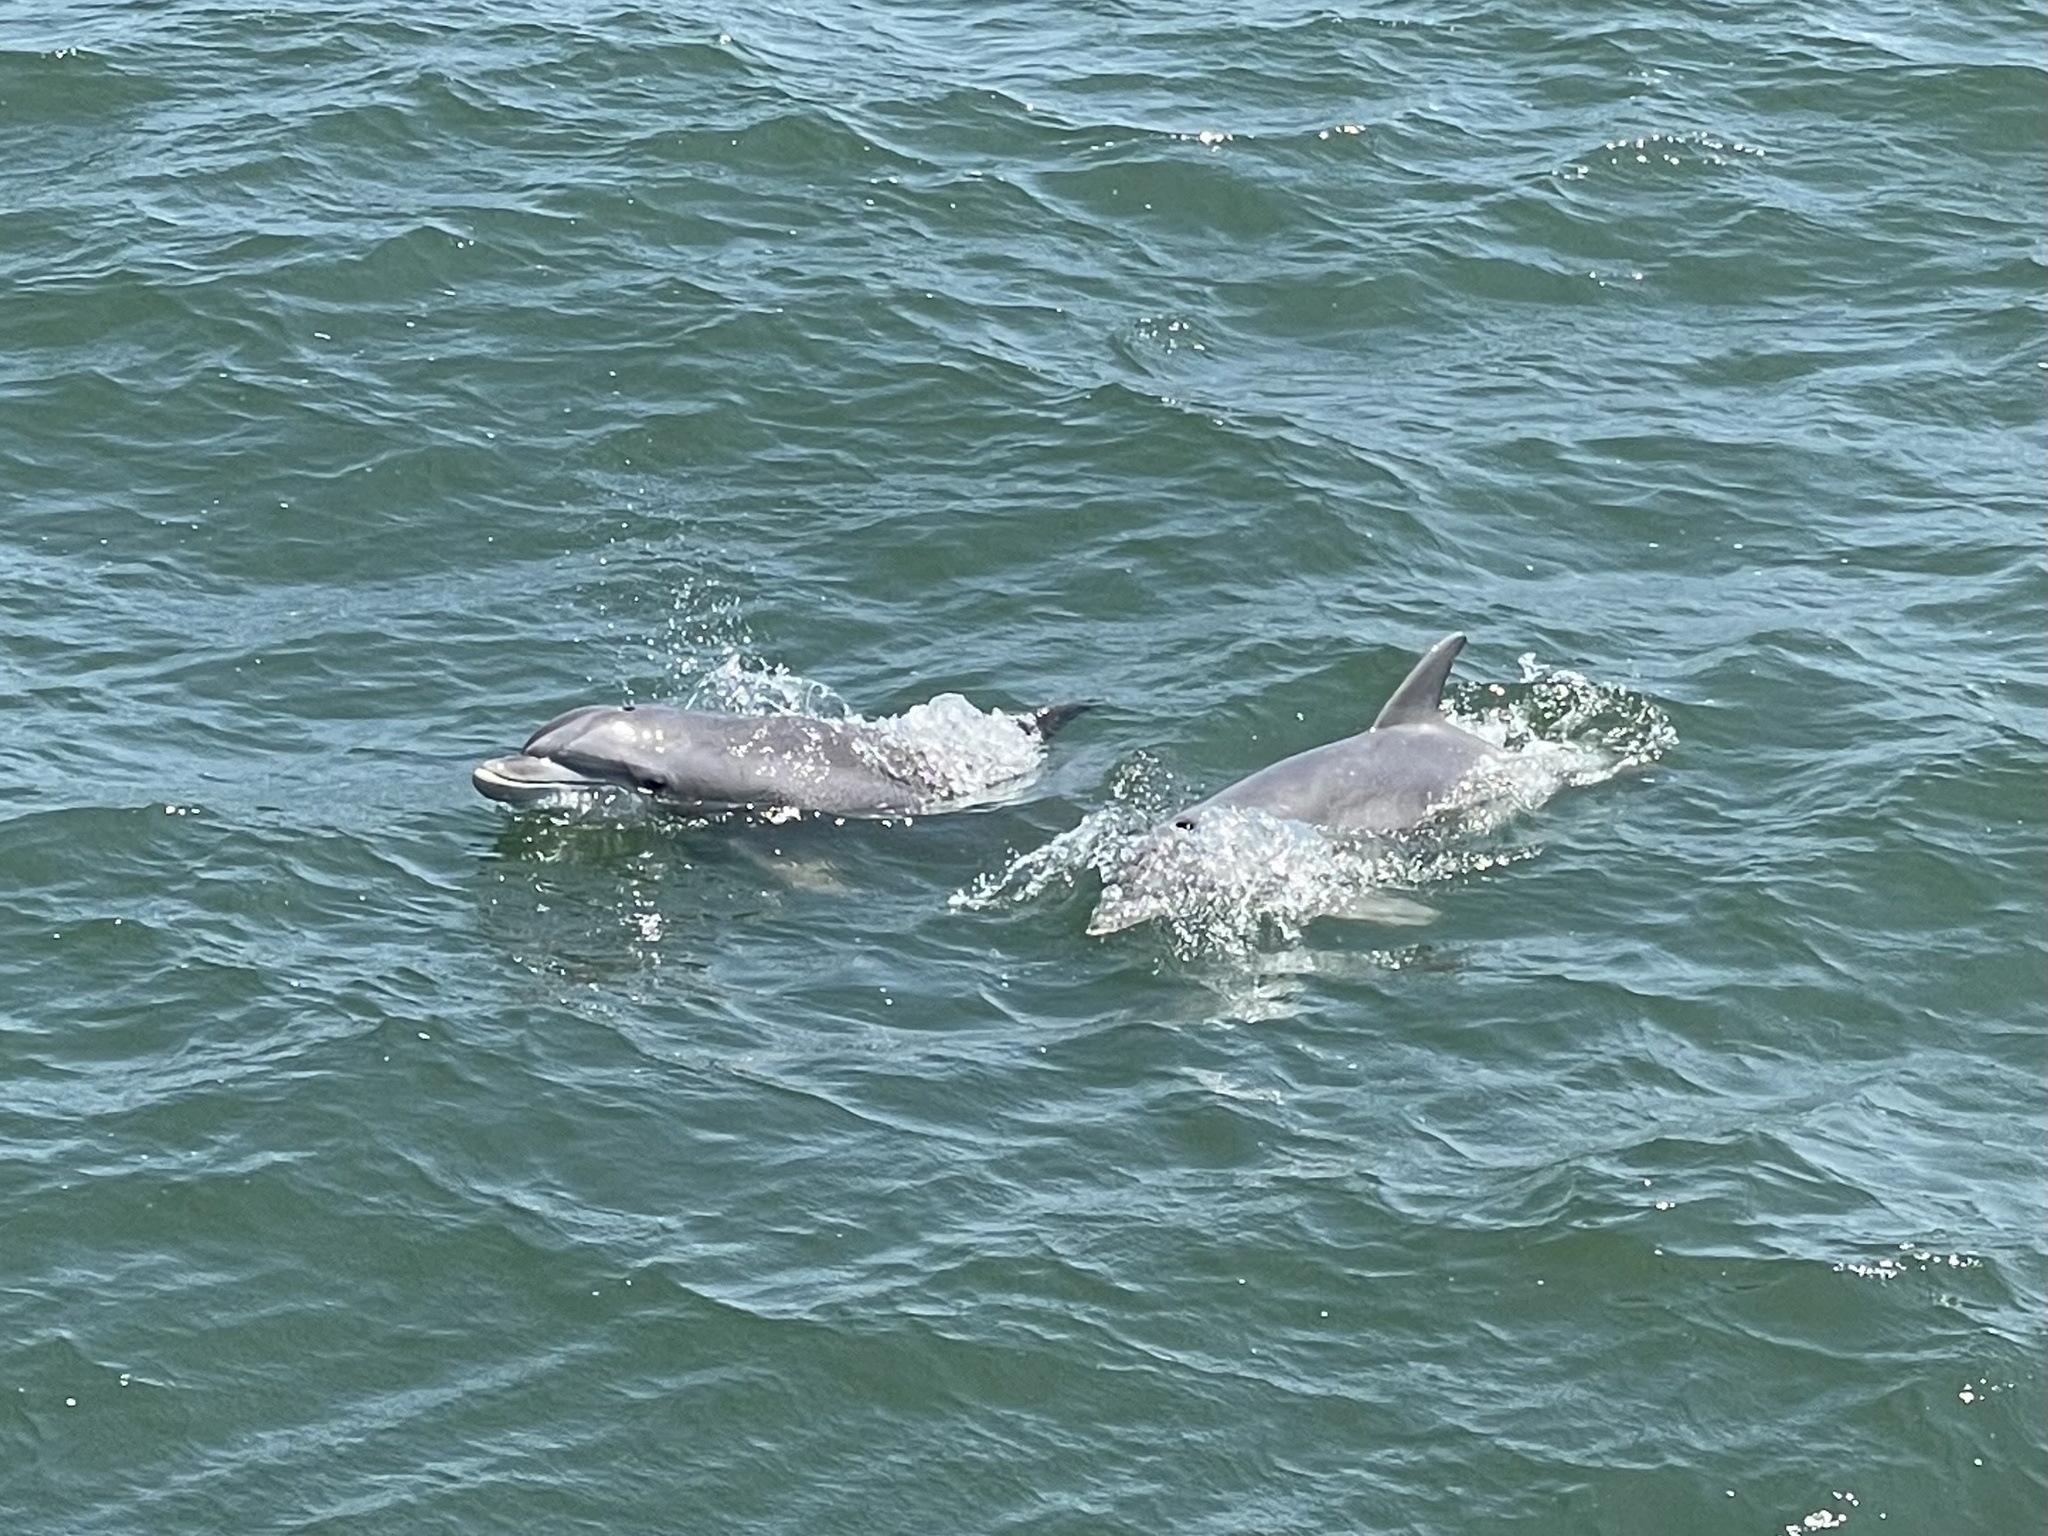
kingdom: Animalia
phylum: Chordata
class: Mammalia
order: Cetacea
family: Delphinidae
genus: Tursiops
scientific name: Tursiops truncatus
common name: Bottlenose dolphin
